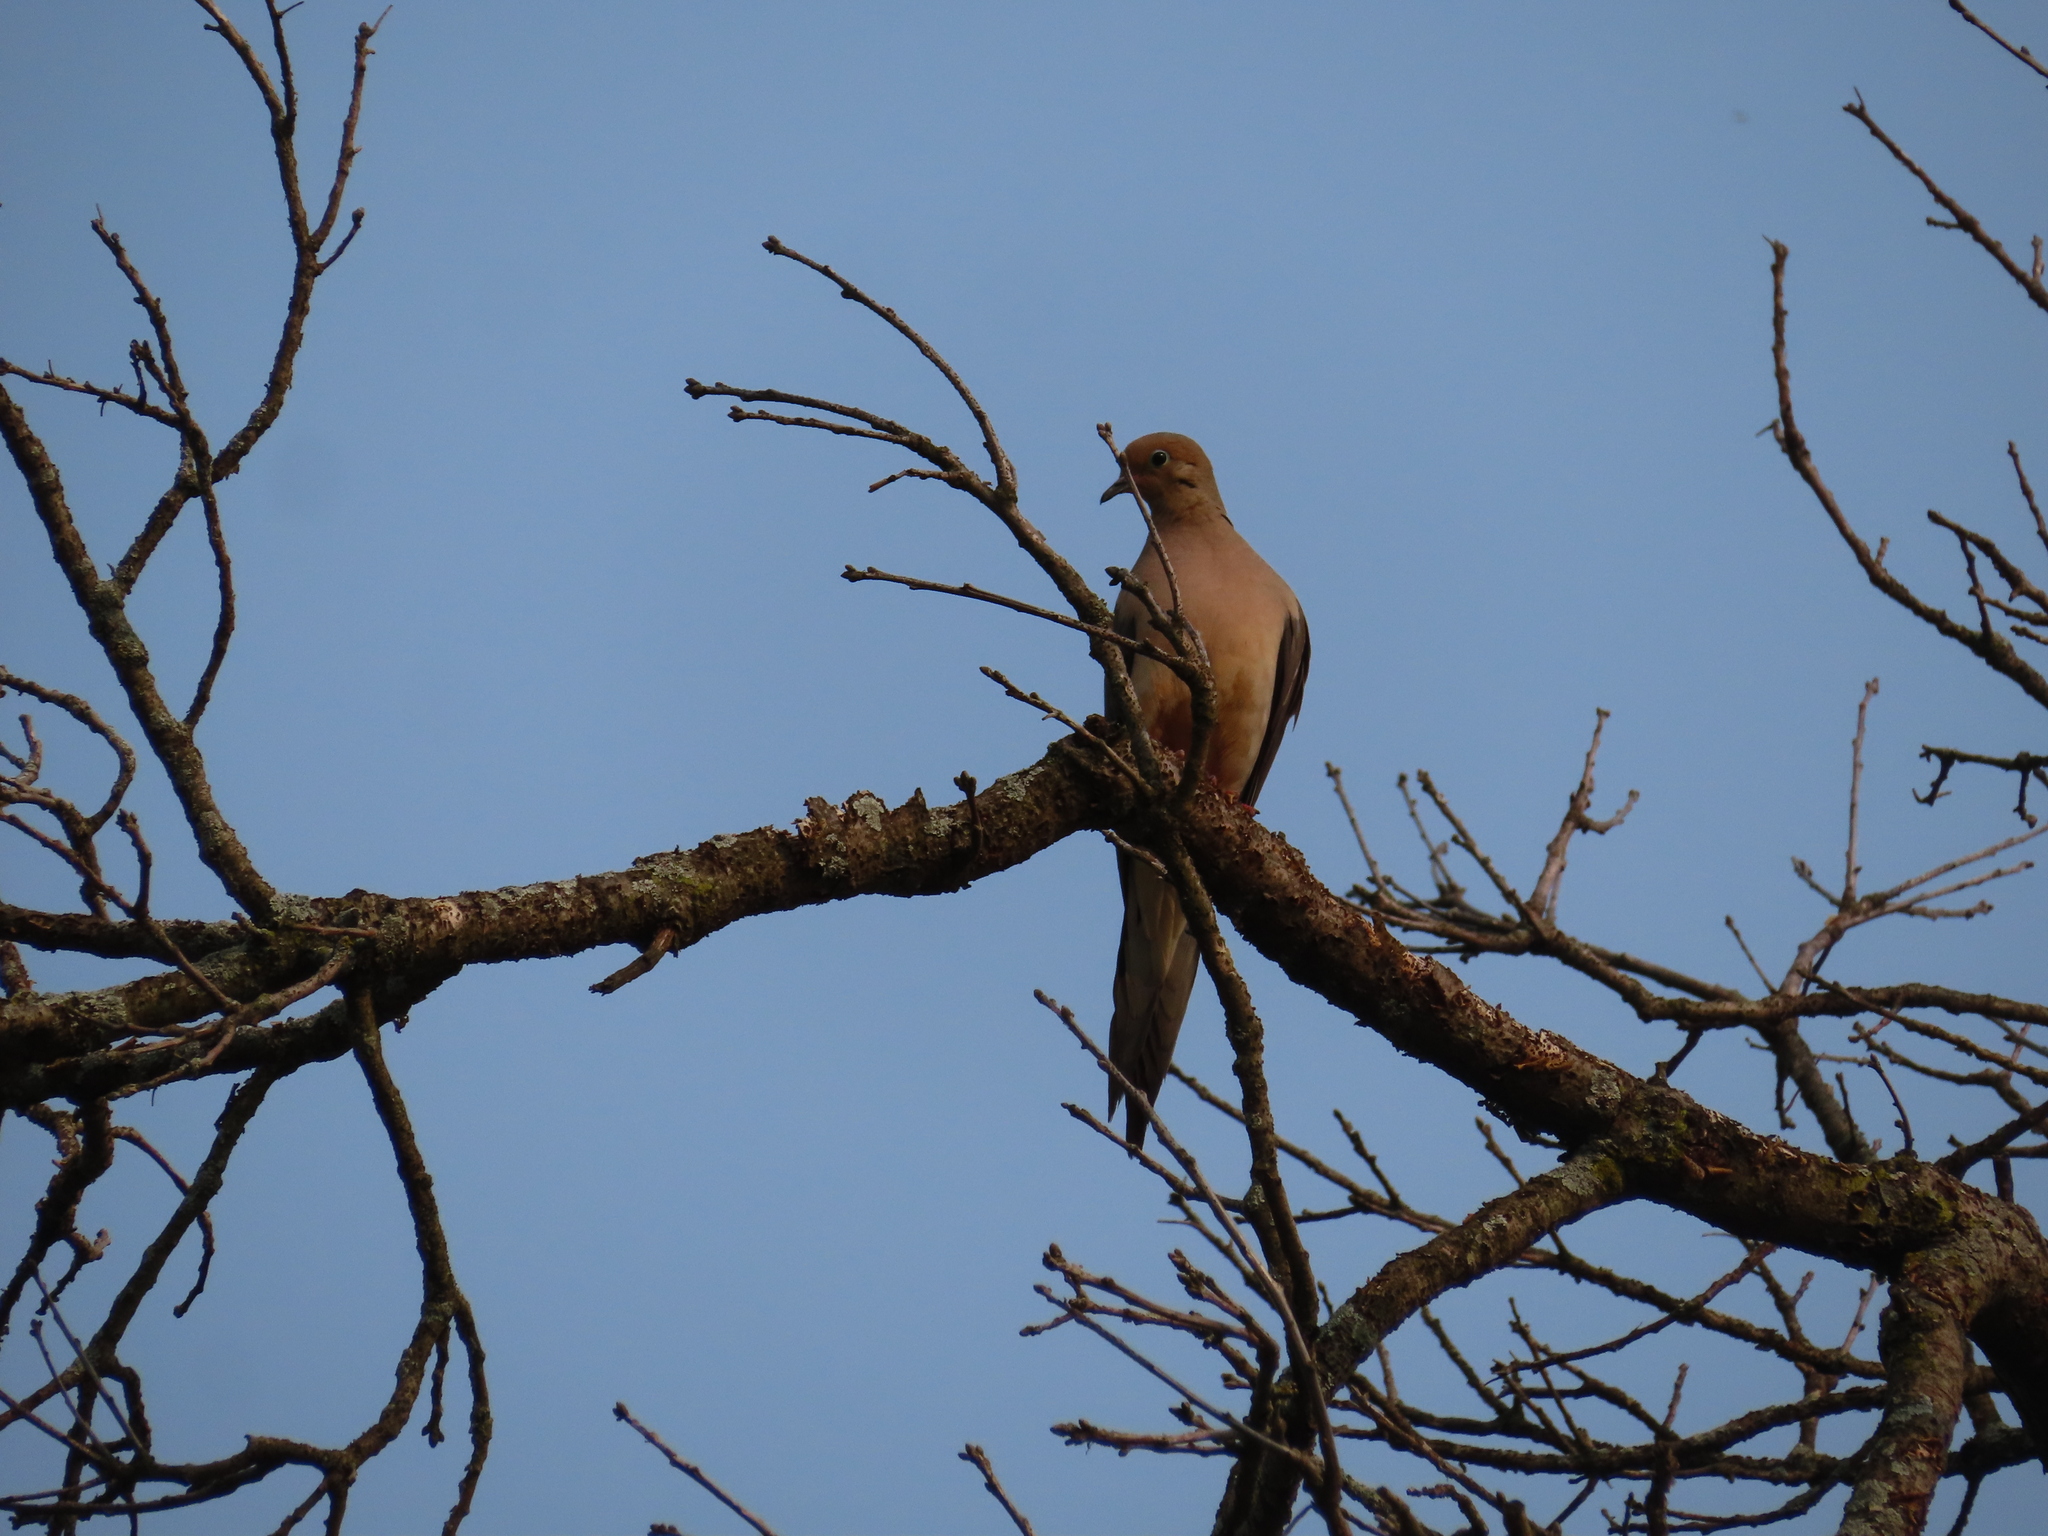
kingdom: Animalia
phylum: Chordata
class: Aves
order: Columbiformes
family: Columbidae
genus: Zenaida
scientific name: Zenaida macroura
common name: Mourning dove
